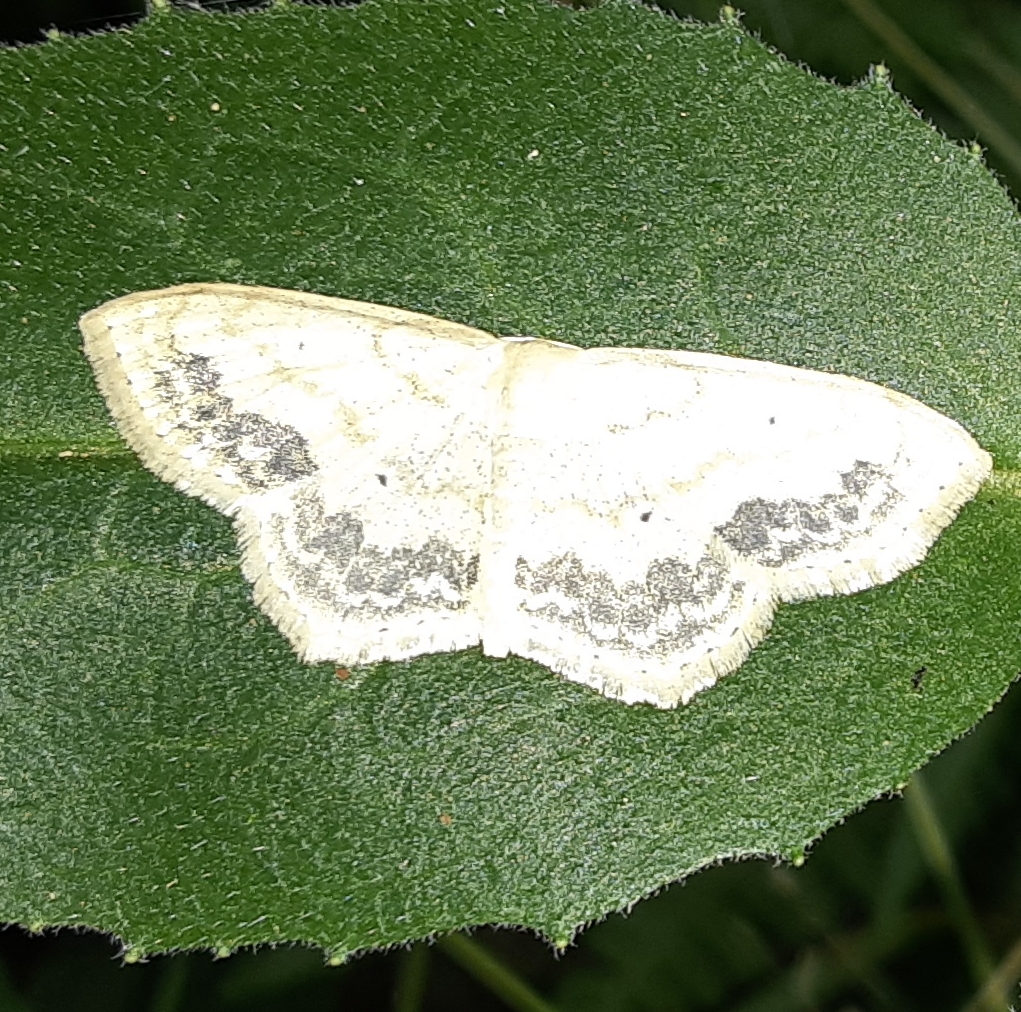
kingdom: Animalia
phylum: Arthropoda
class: Insecta
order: Lepidoptera
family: Geometridae
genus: Scopula
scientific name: Scopula limboundata
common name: Large lace border
